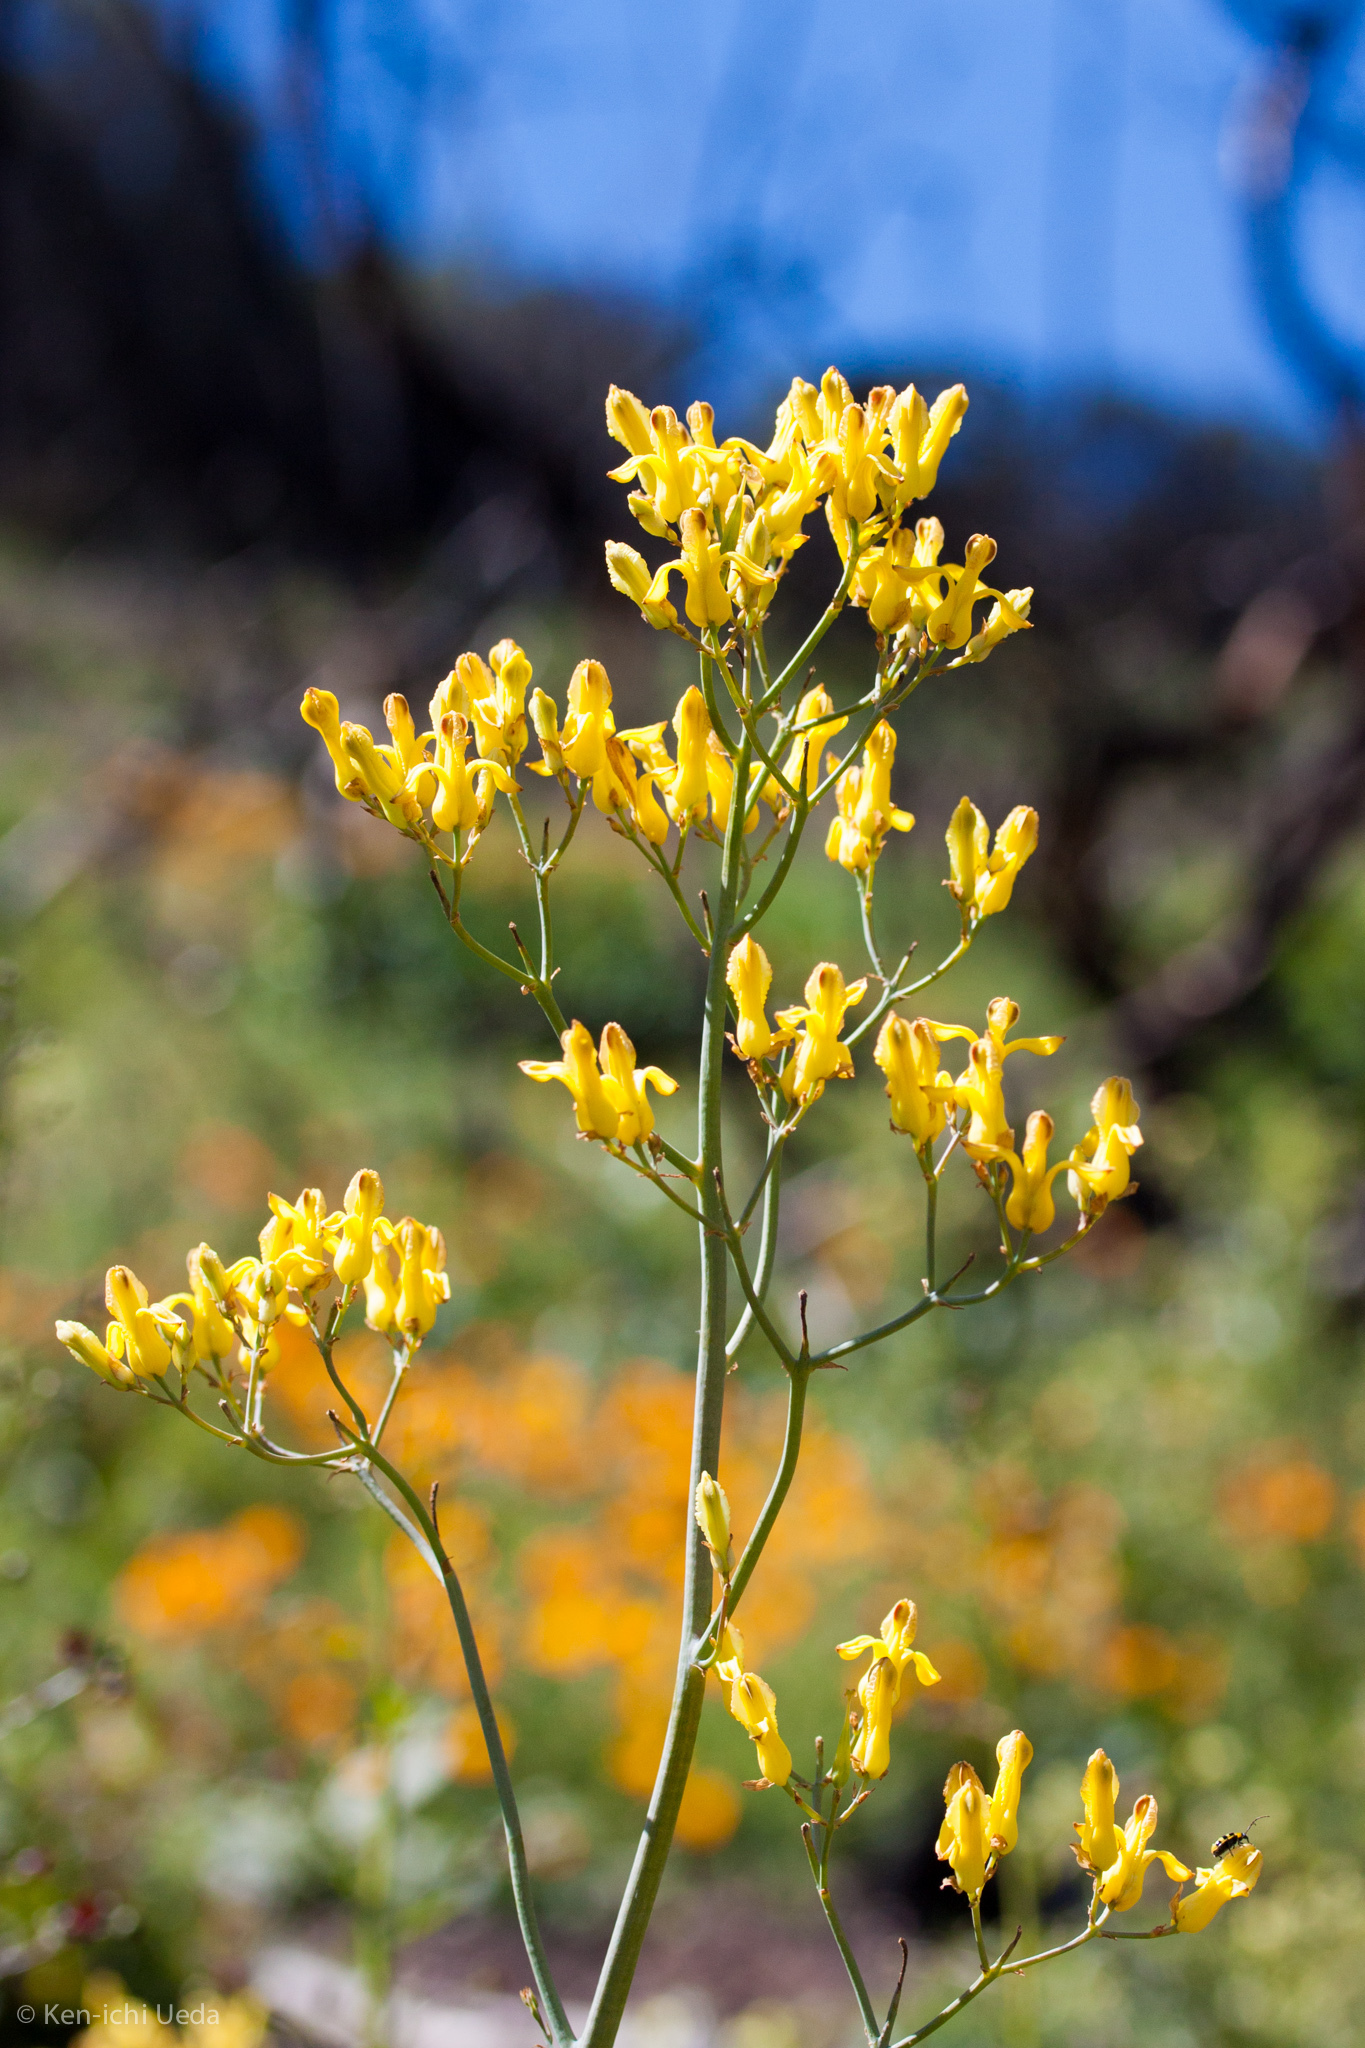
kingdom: Plantae
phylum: Tracheophyta
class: Magnoliopsida
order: Ranunculales
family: Papaveraceae
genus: Ehrendorferia
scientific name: Ehrendorferia chrysantha
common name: Golden eardrops
